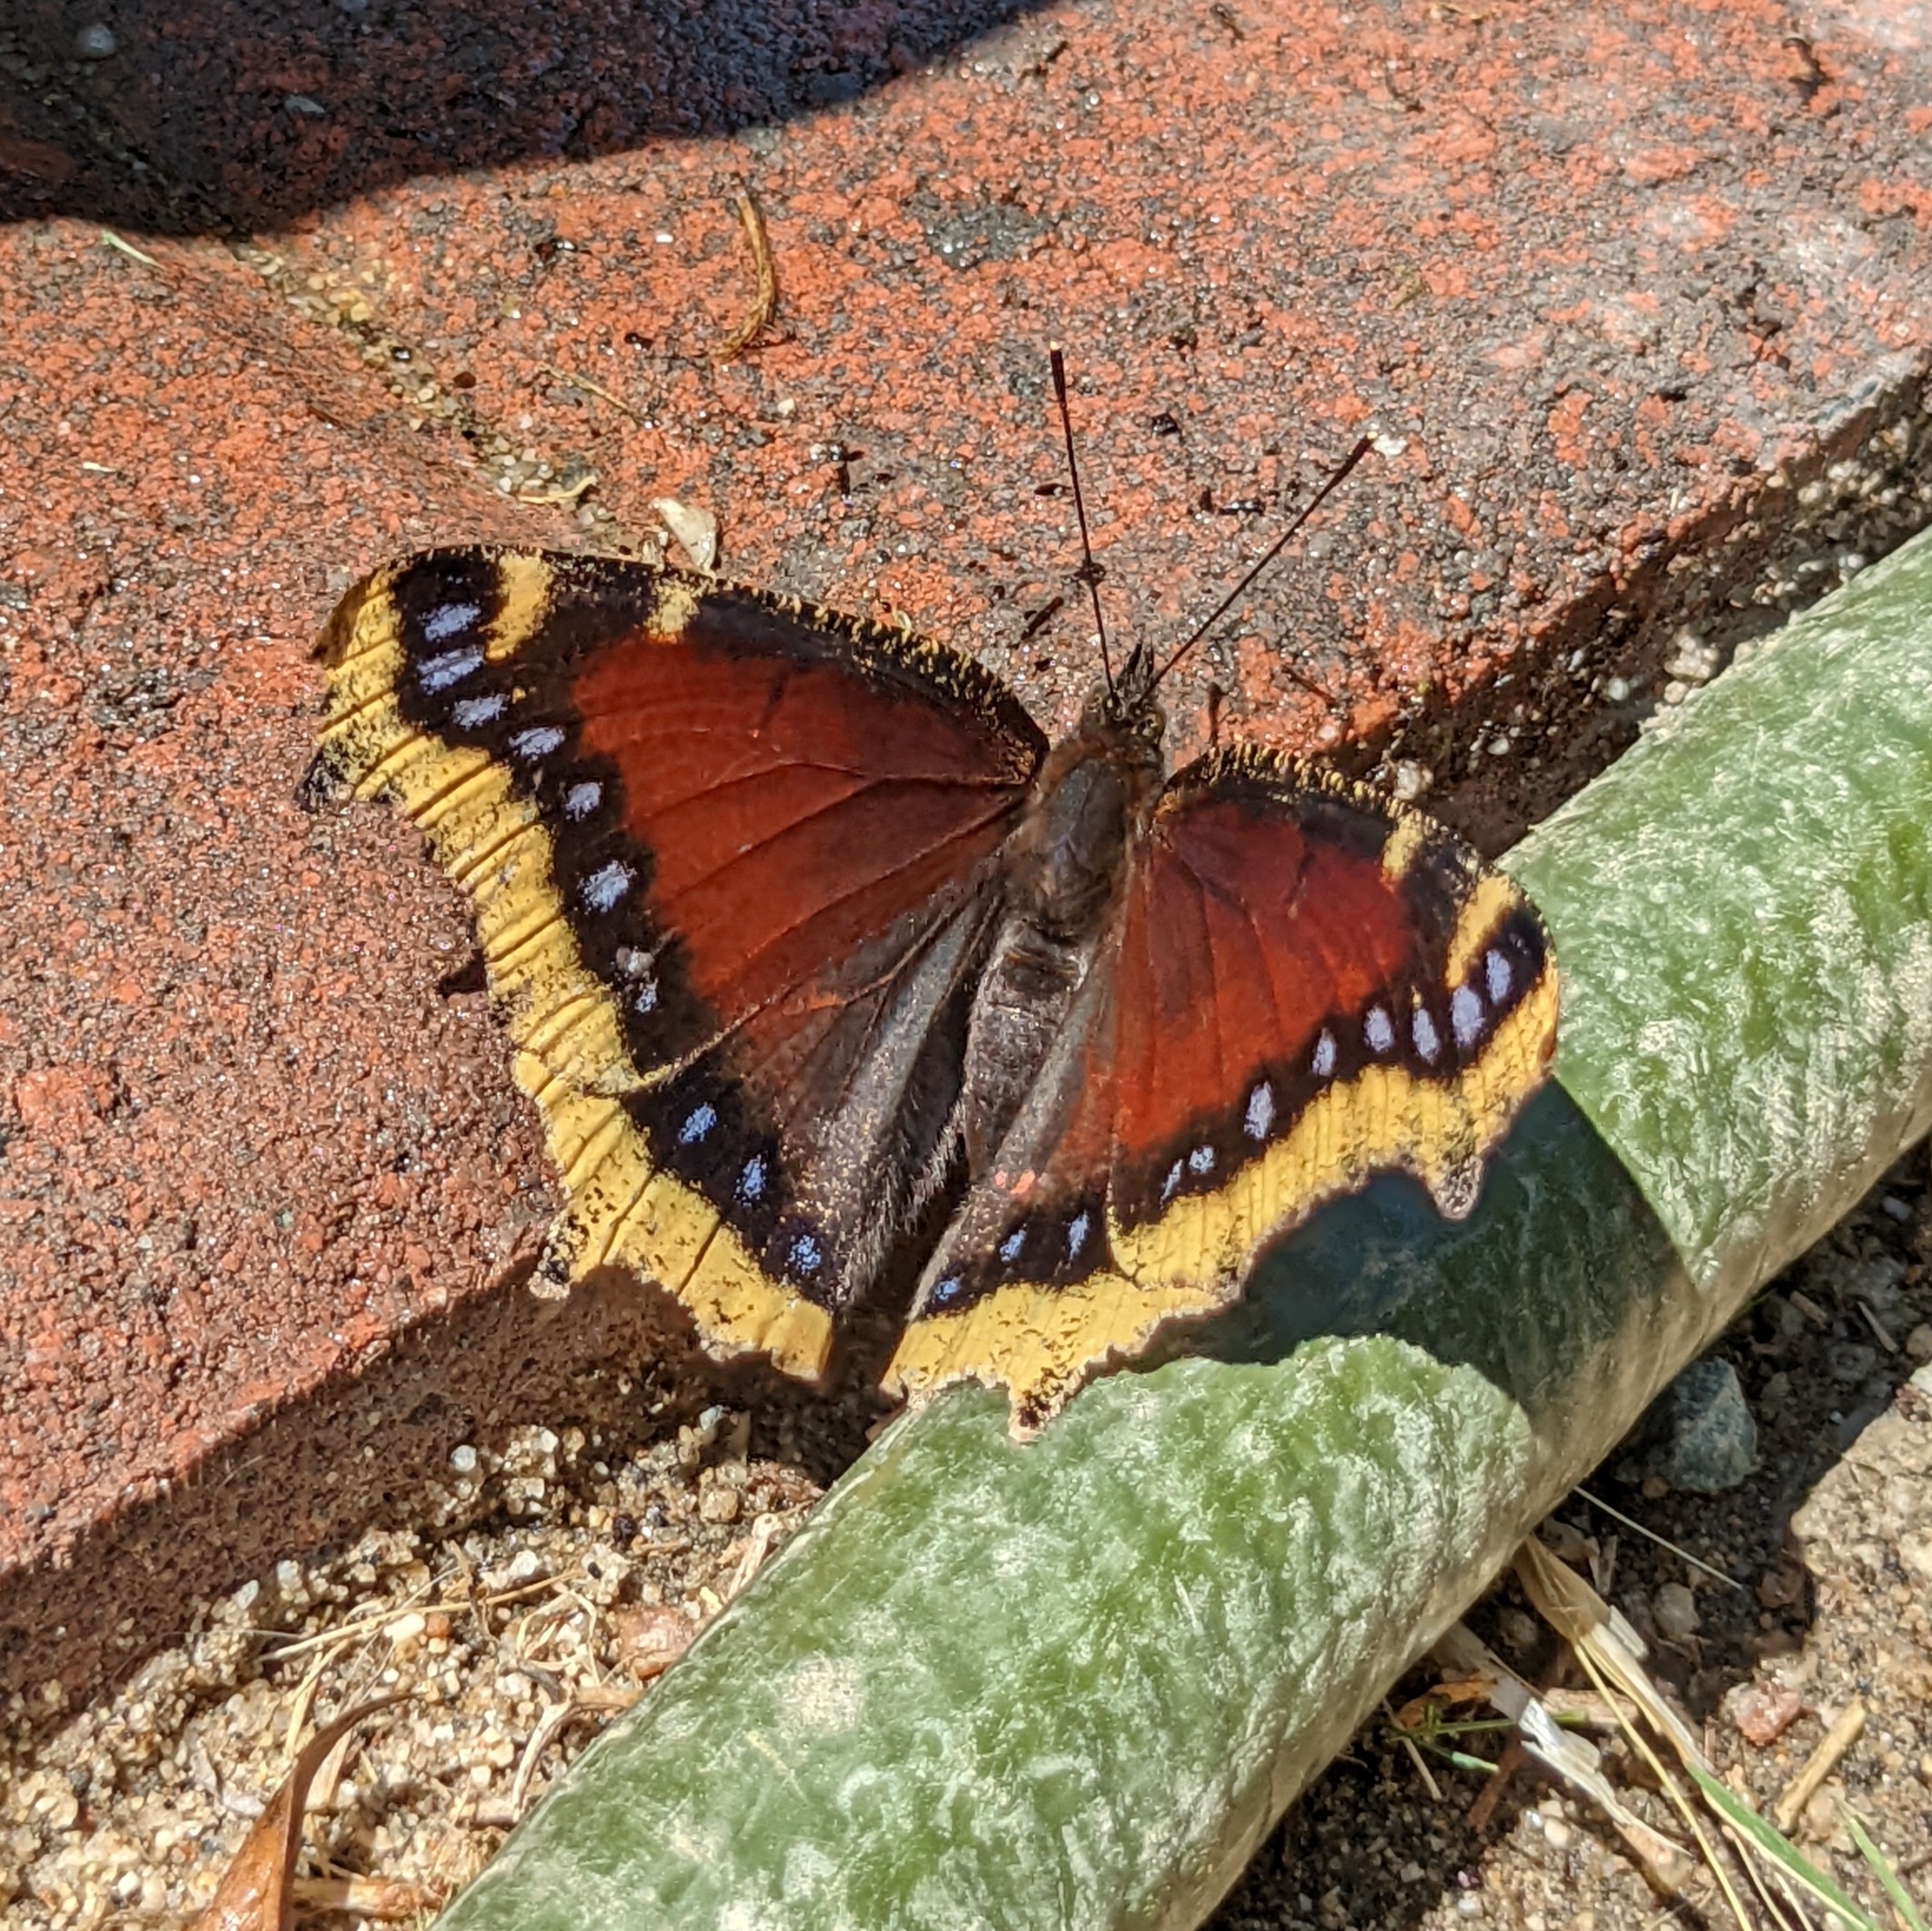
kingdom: Animalia
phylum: Arthropoda
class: Insecta
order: Lepidoptera
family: Nymphalidae
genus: Nymphalis
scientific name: Nymphalis antiopa
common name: Camberwell beauty
